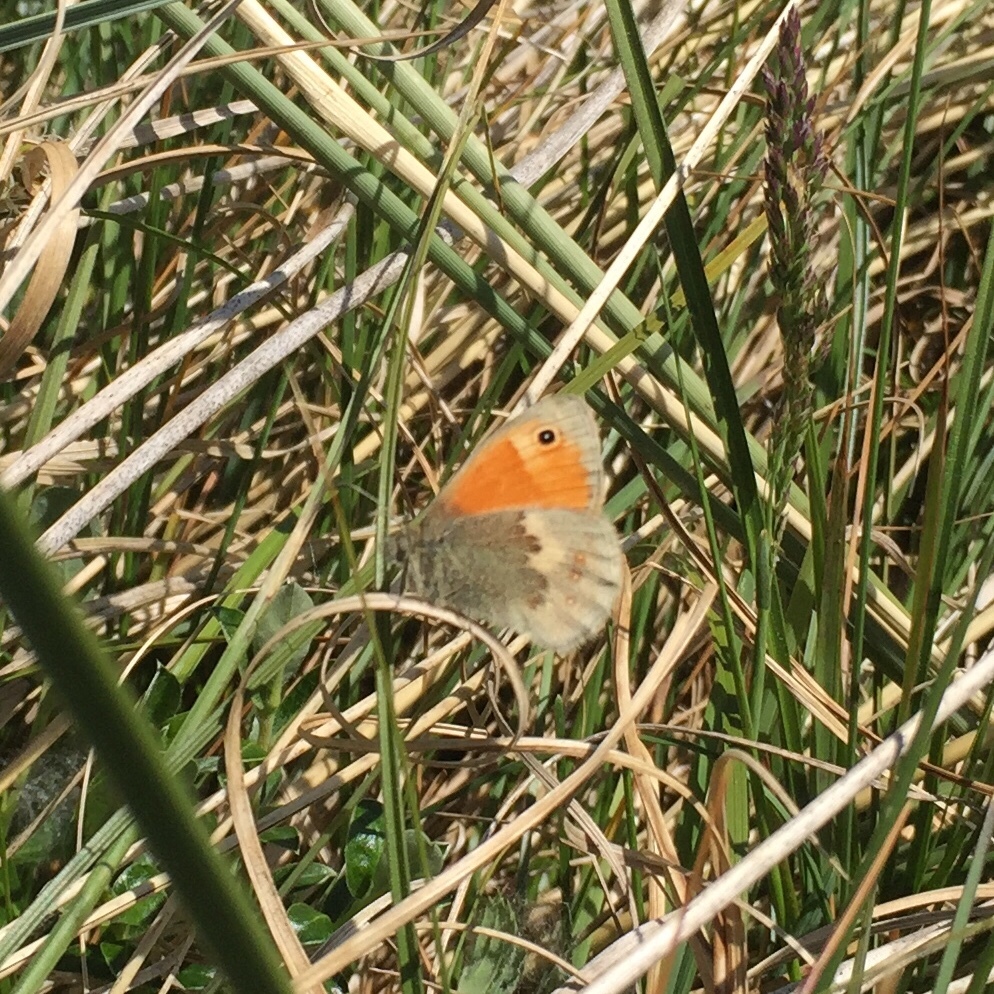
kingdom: Animalia
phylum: Arthropoda
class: Insecta
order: Lepidoptera
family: Nymphalidae
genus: Coenonympha
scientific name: Coenonympha pamphilus
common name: Small heath
